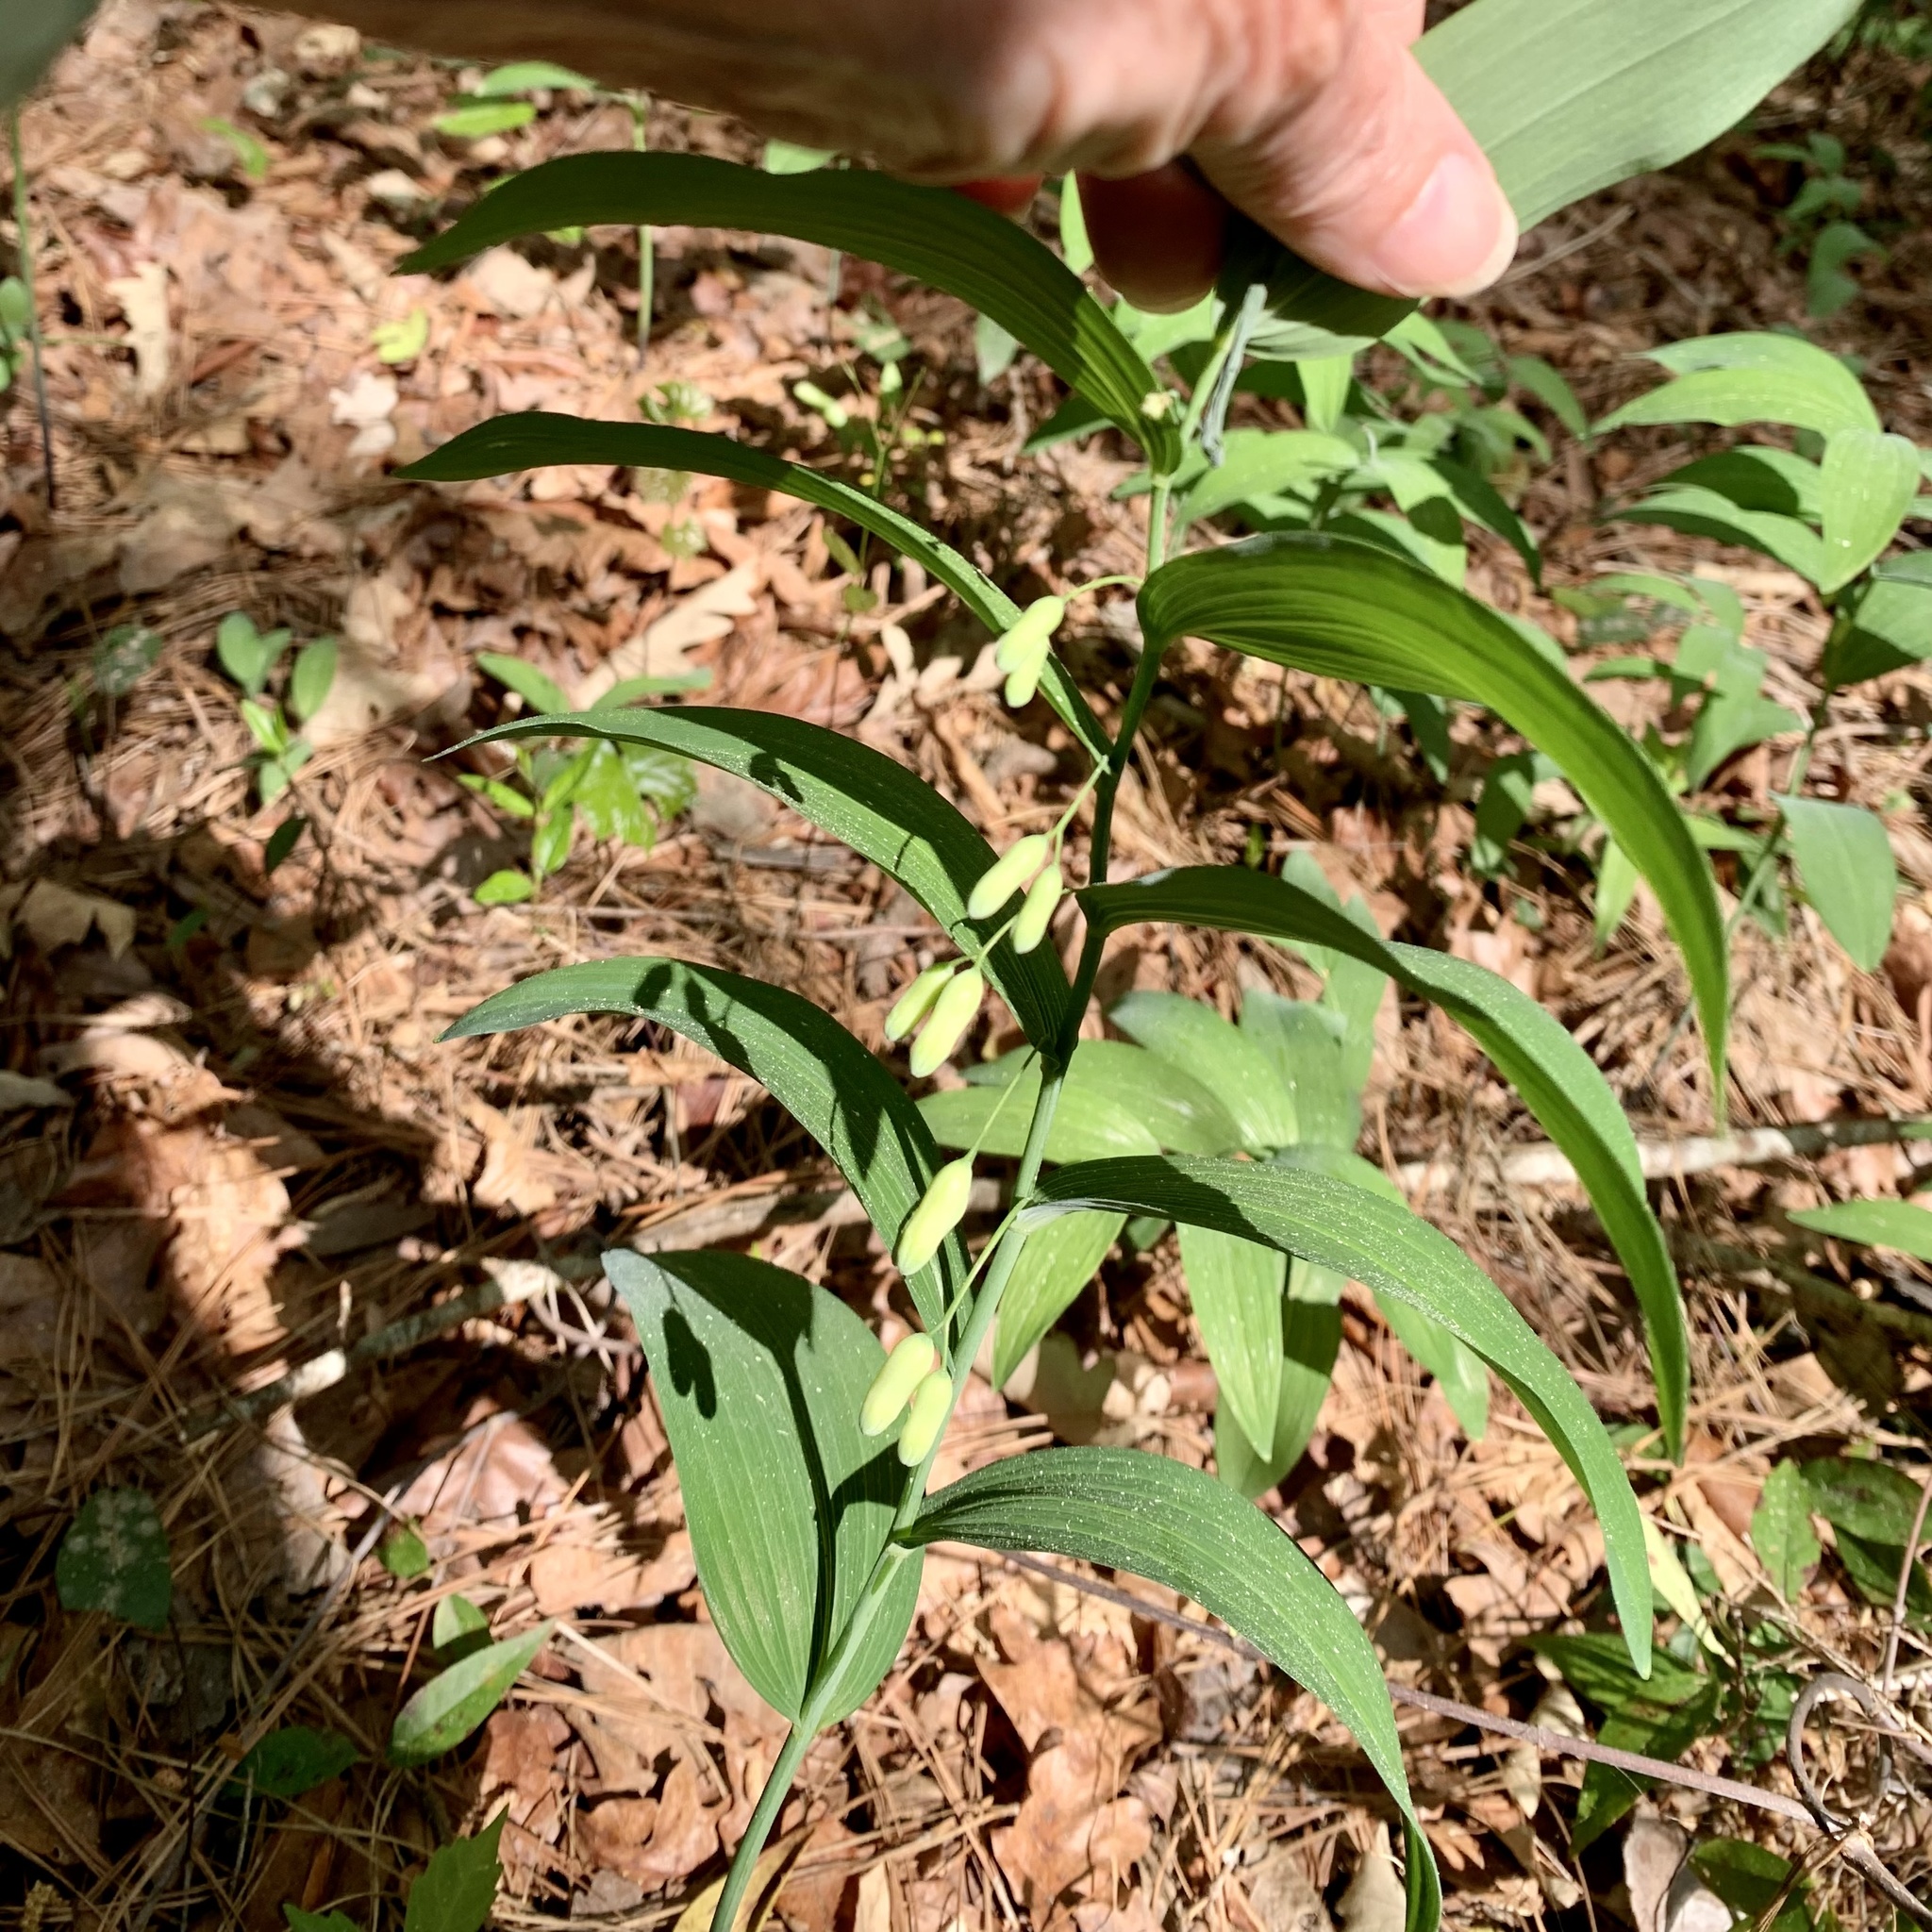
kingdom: Plantae
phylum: Tracheophyta
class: Liliopsida
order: Asparagales
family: Asparagaceae
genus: Polygonatum
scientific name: Polygonatum biflorum
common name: American solomon's-seal
